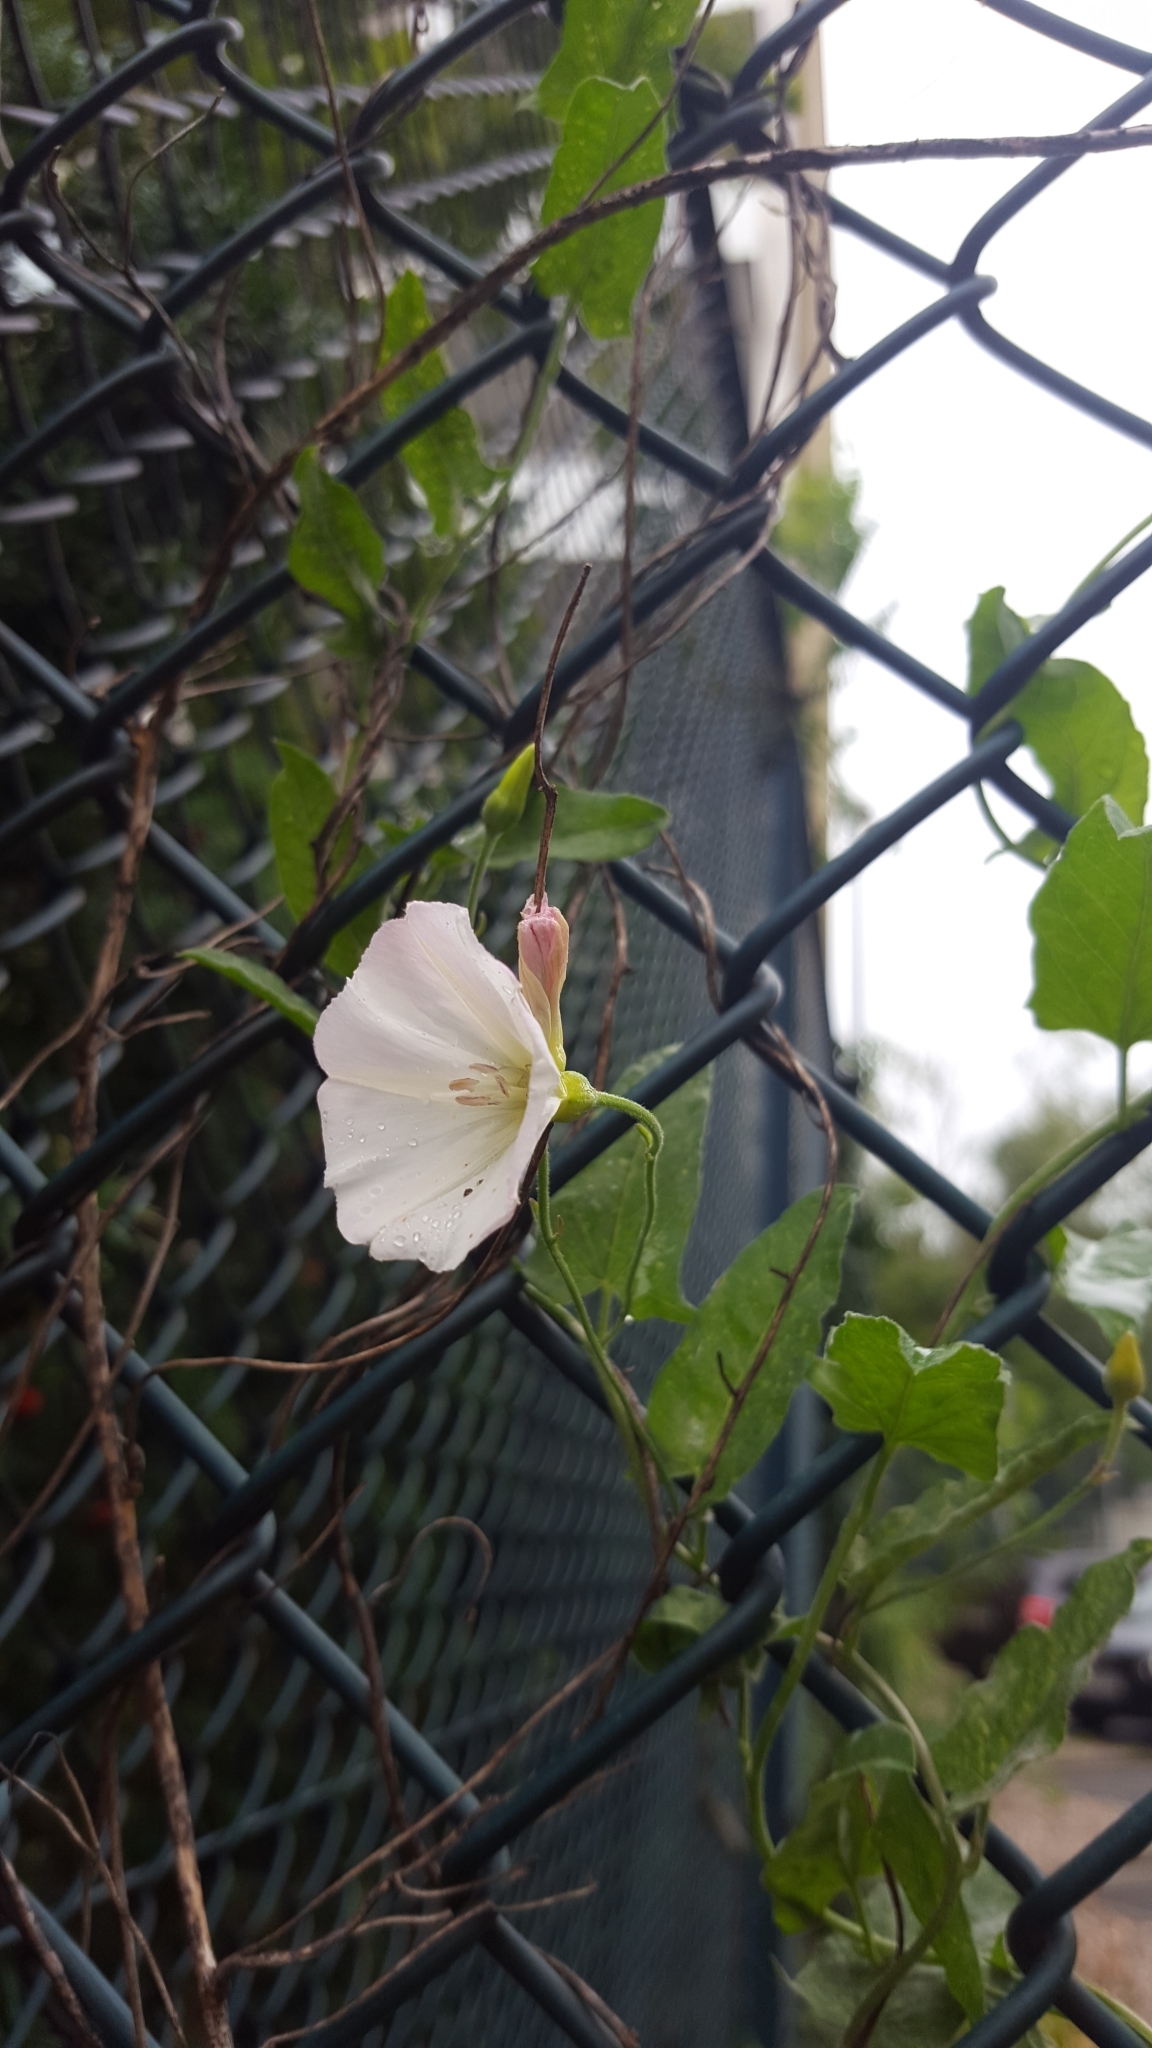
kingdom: Plantae
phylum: Tracheophyta
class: Magnoliopsida
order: Solanales
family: Convolvulaceae
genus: Convolvulus
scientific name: Convolvulus arvensis
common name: Field bindweed
